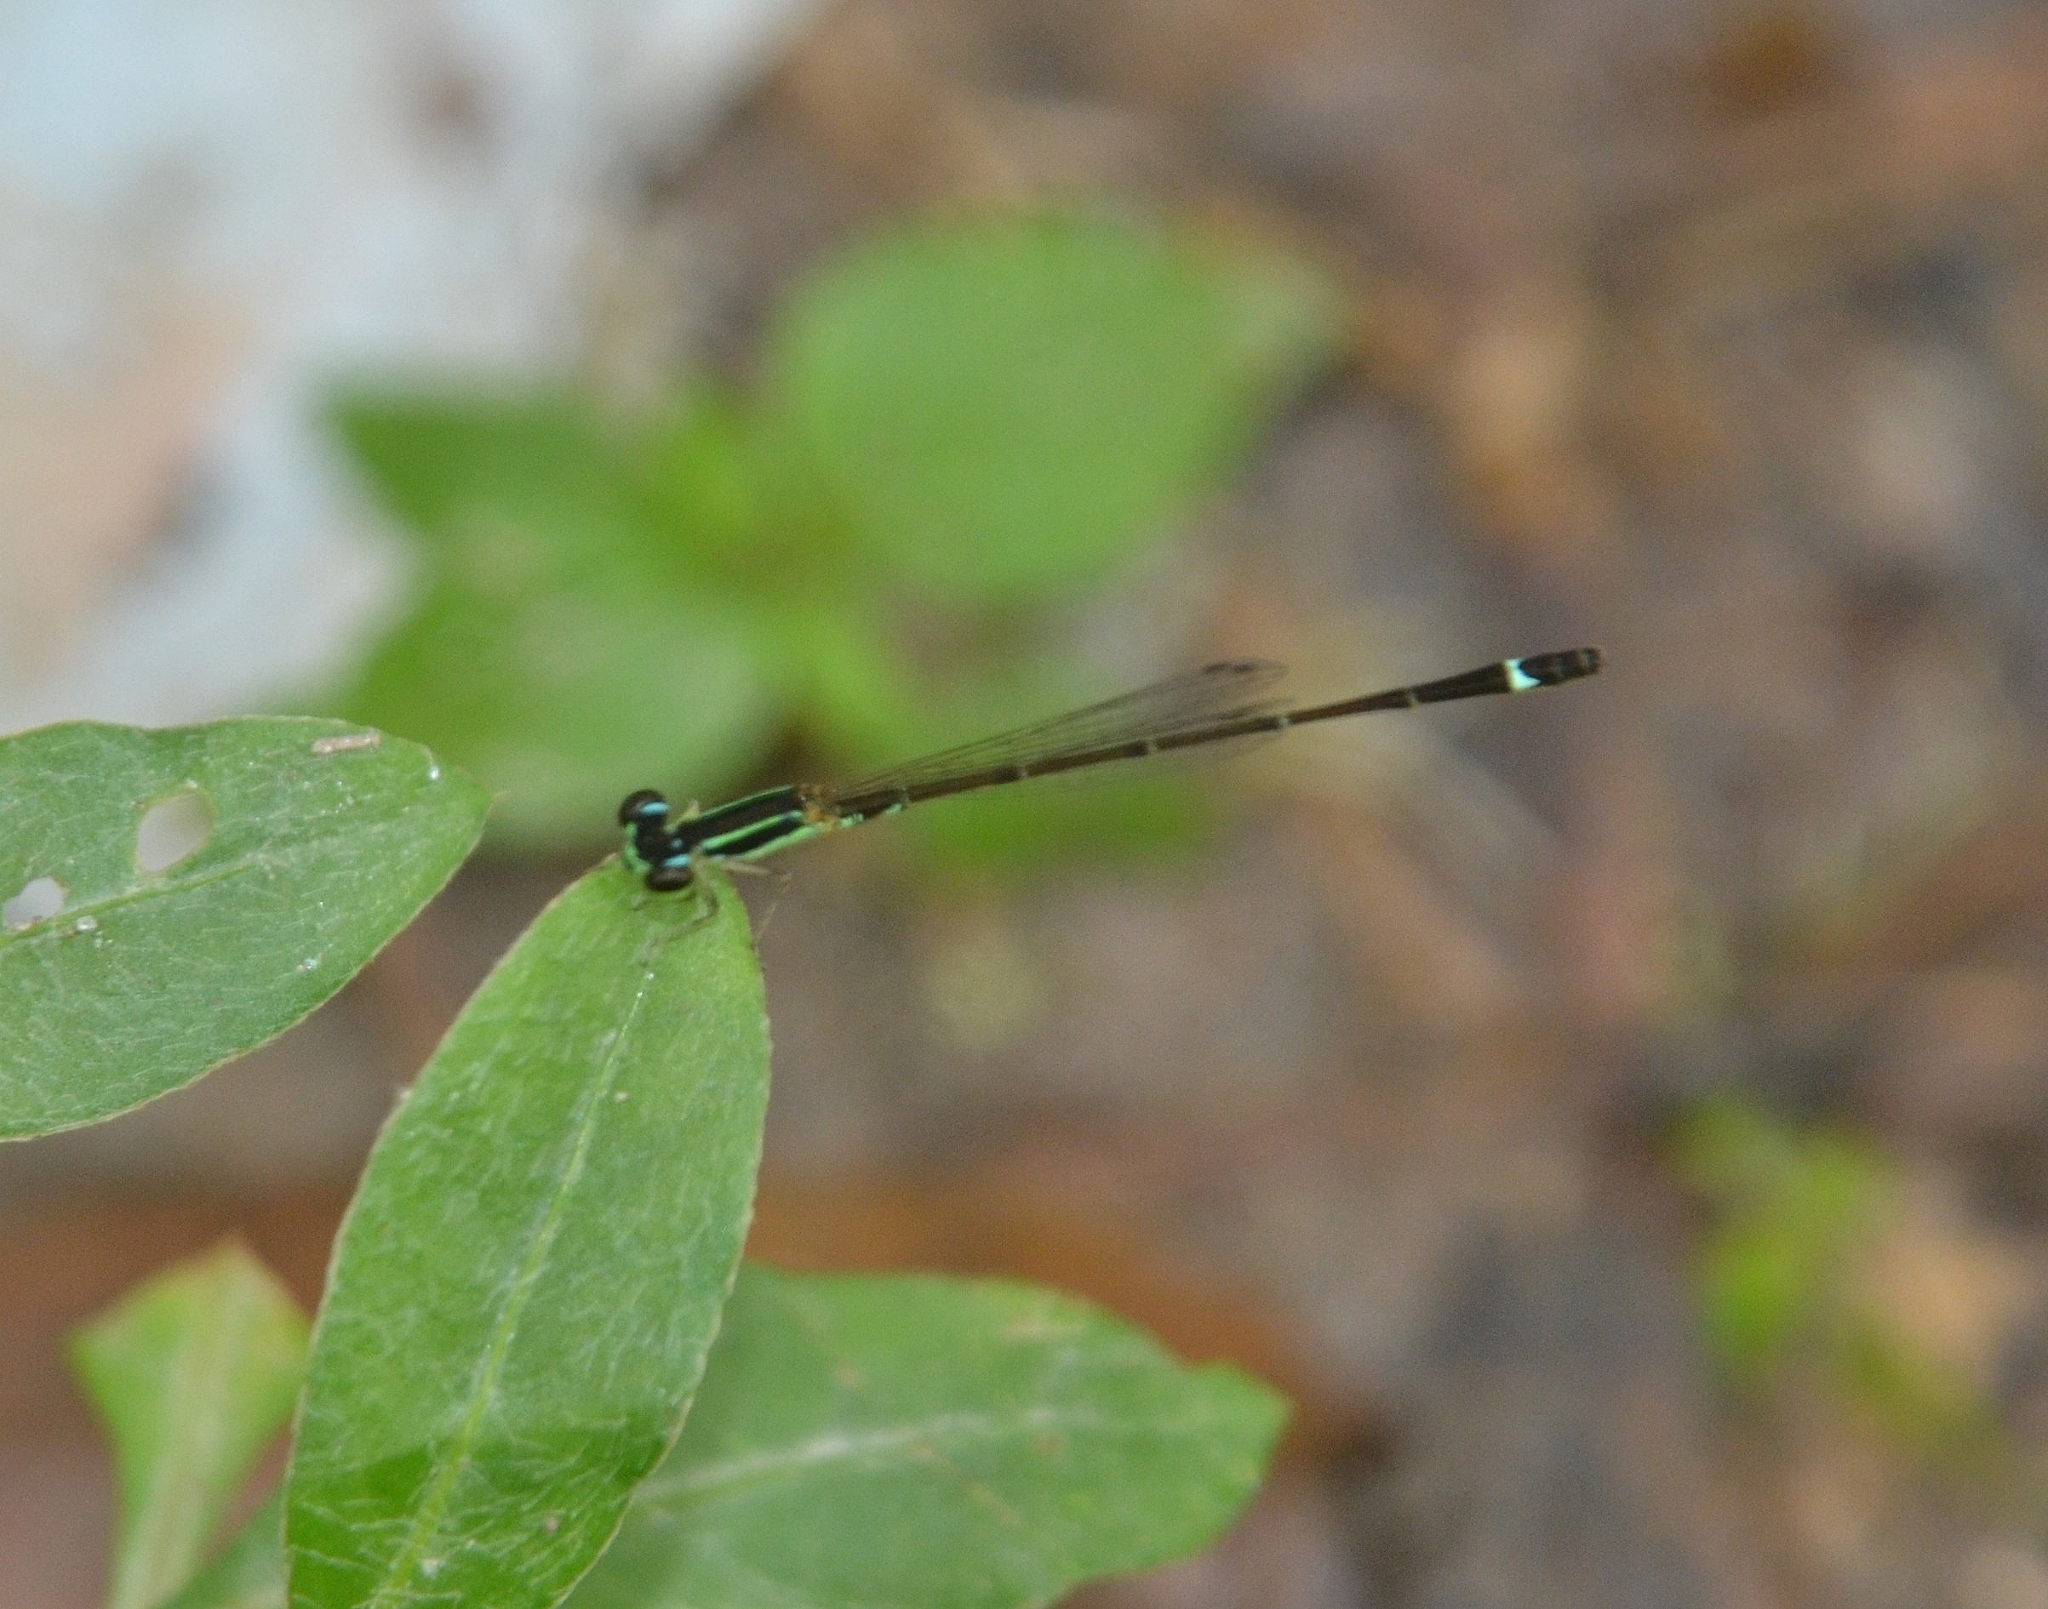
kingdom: Animalia
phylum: Arthropoda
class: Insecta
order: Odonata
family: Coenagrionidae
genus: Mortonagrion
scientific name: Mortonagrion varralli
